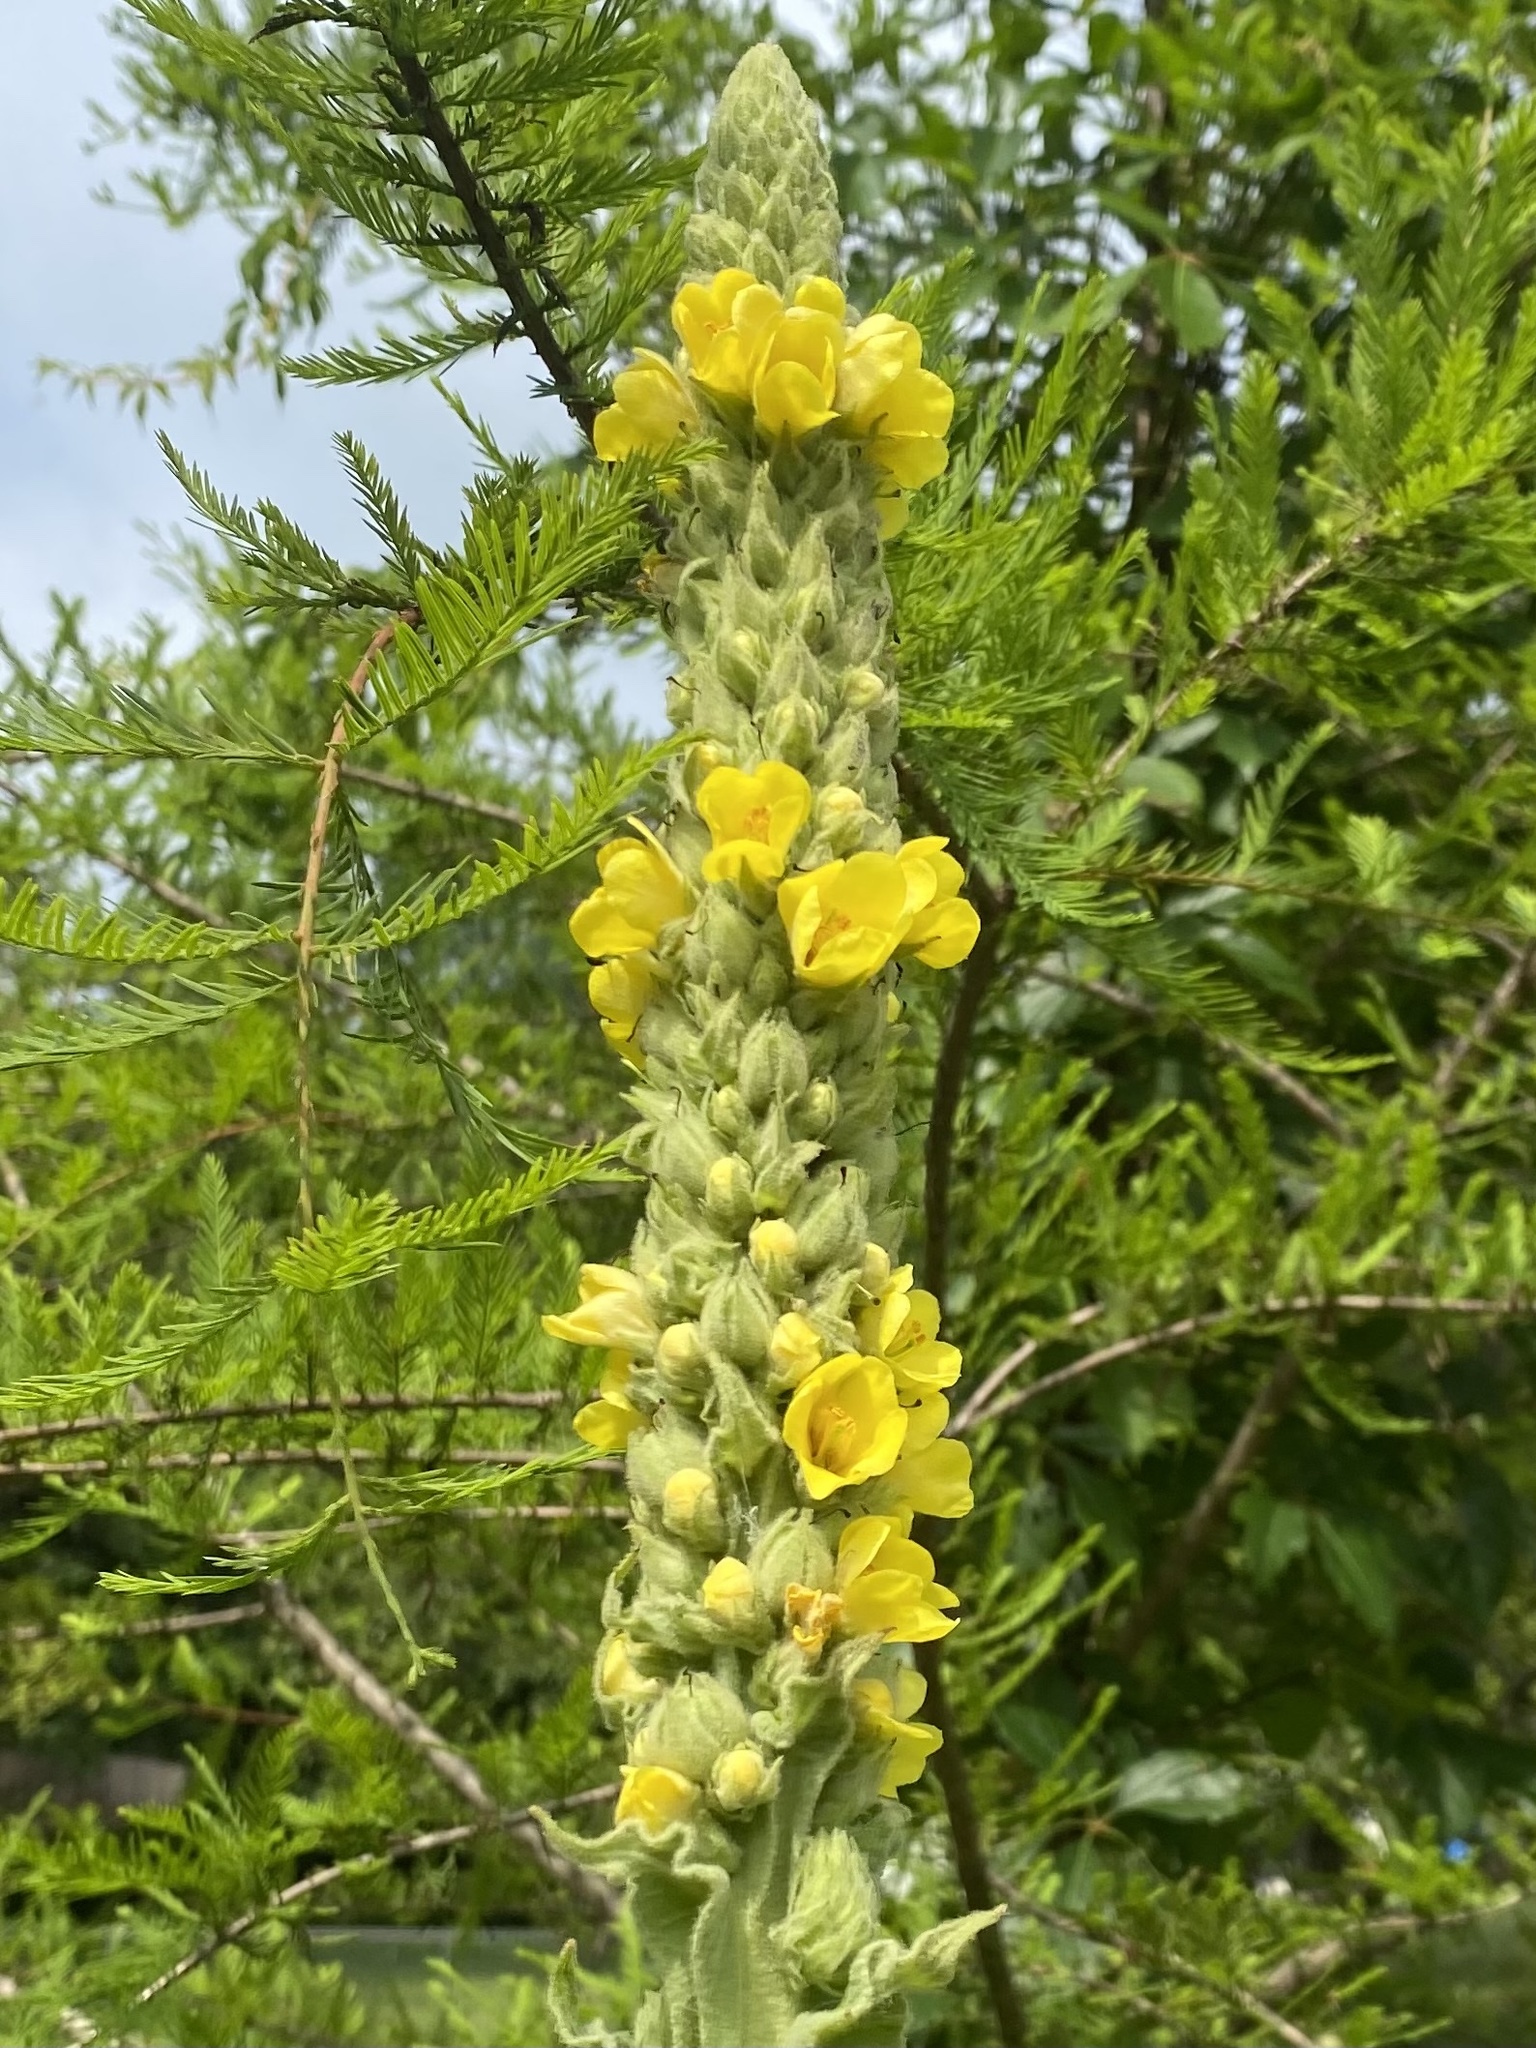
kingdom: Plantae
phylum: Tracheophyta
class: Magnoliopsida
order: Lamiales
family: Scrophulariaceae
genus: Verbascum
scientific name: Verbascum thapsus
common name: Common mullein
